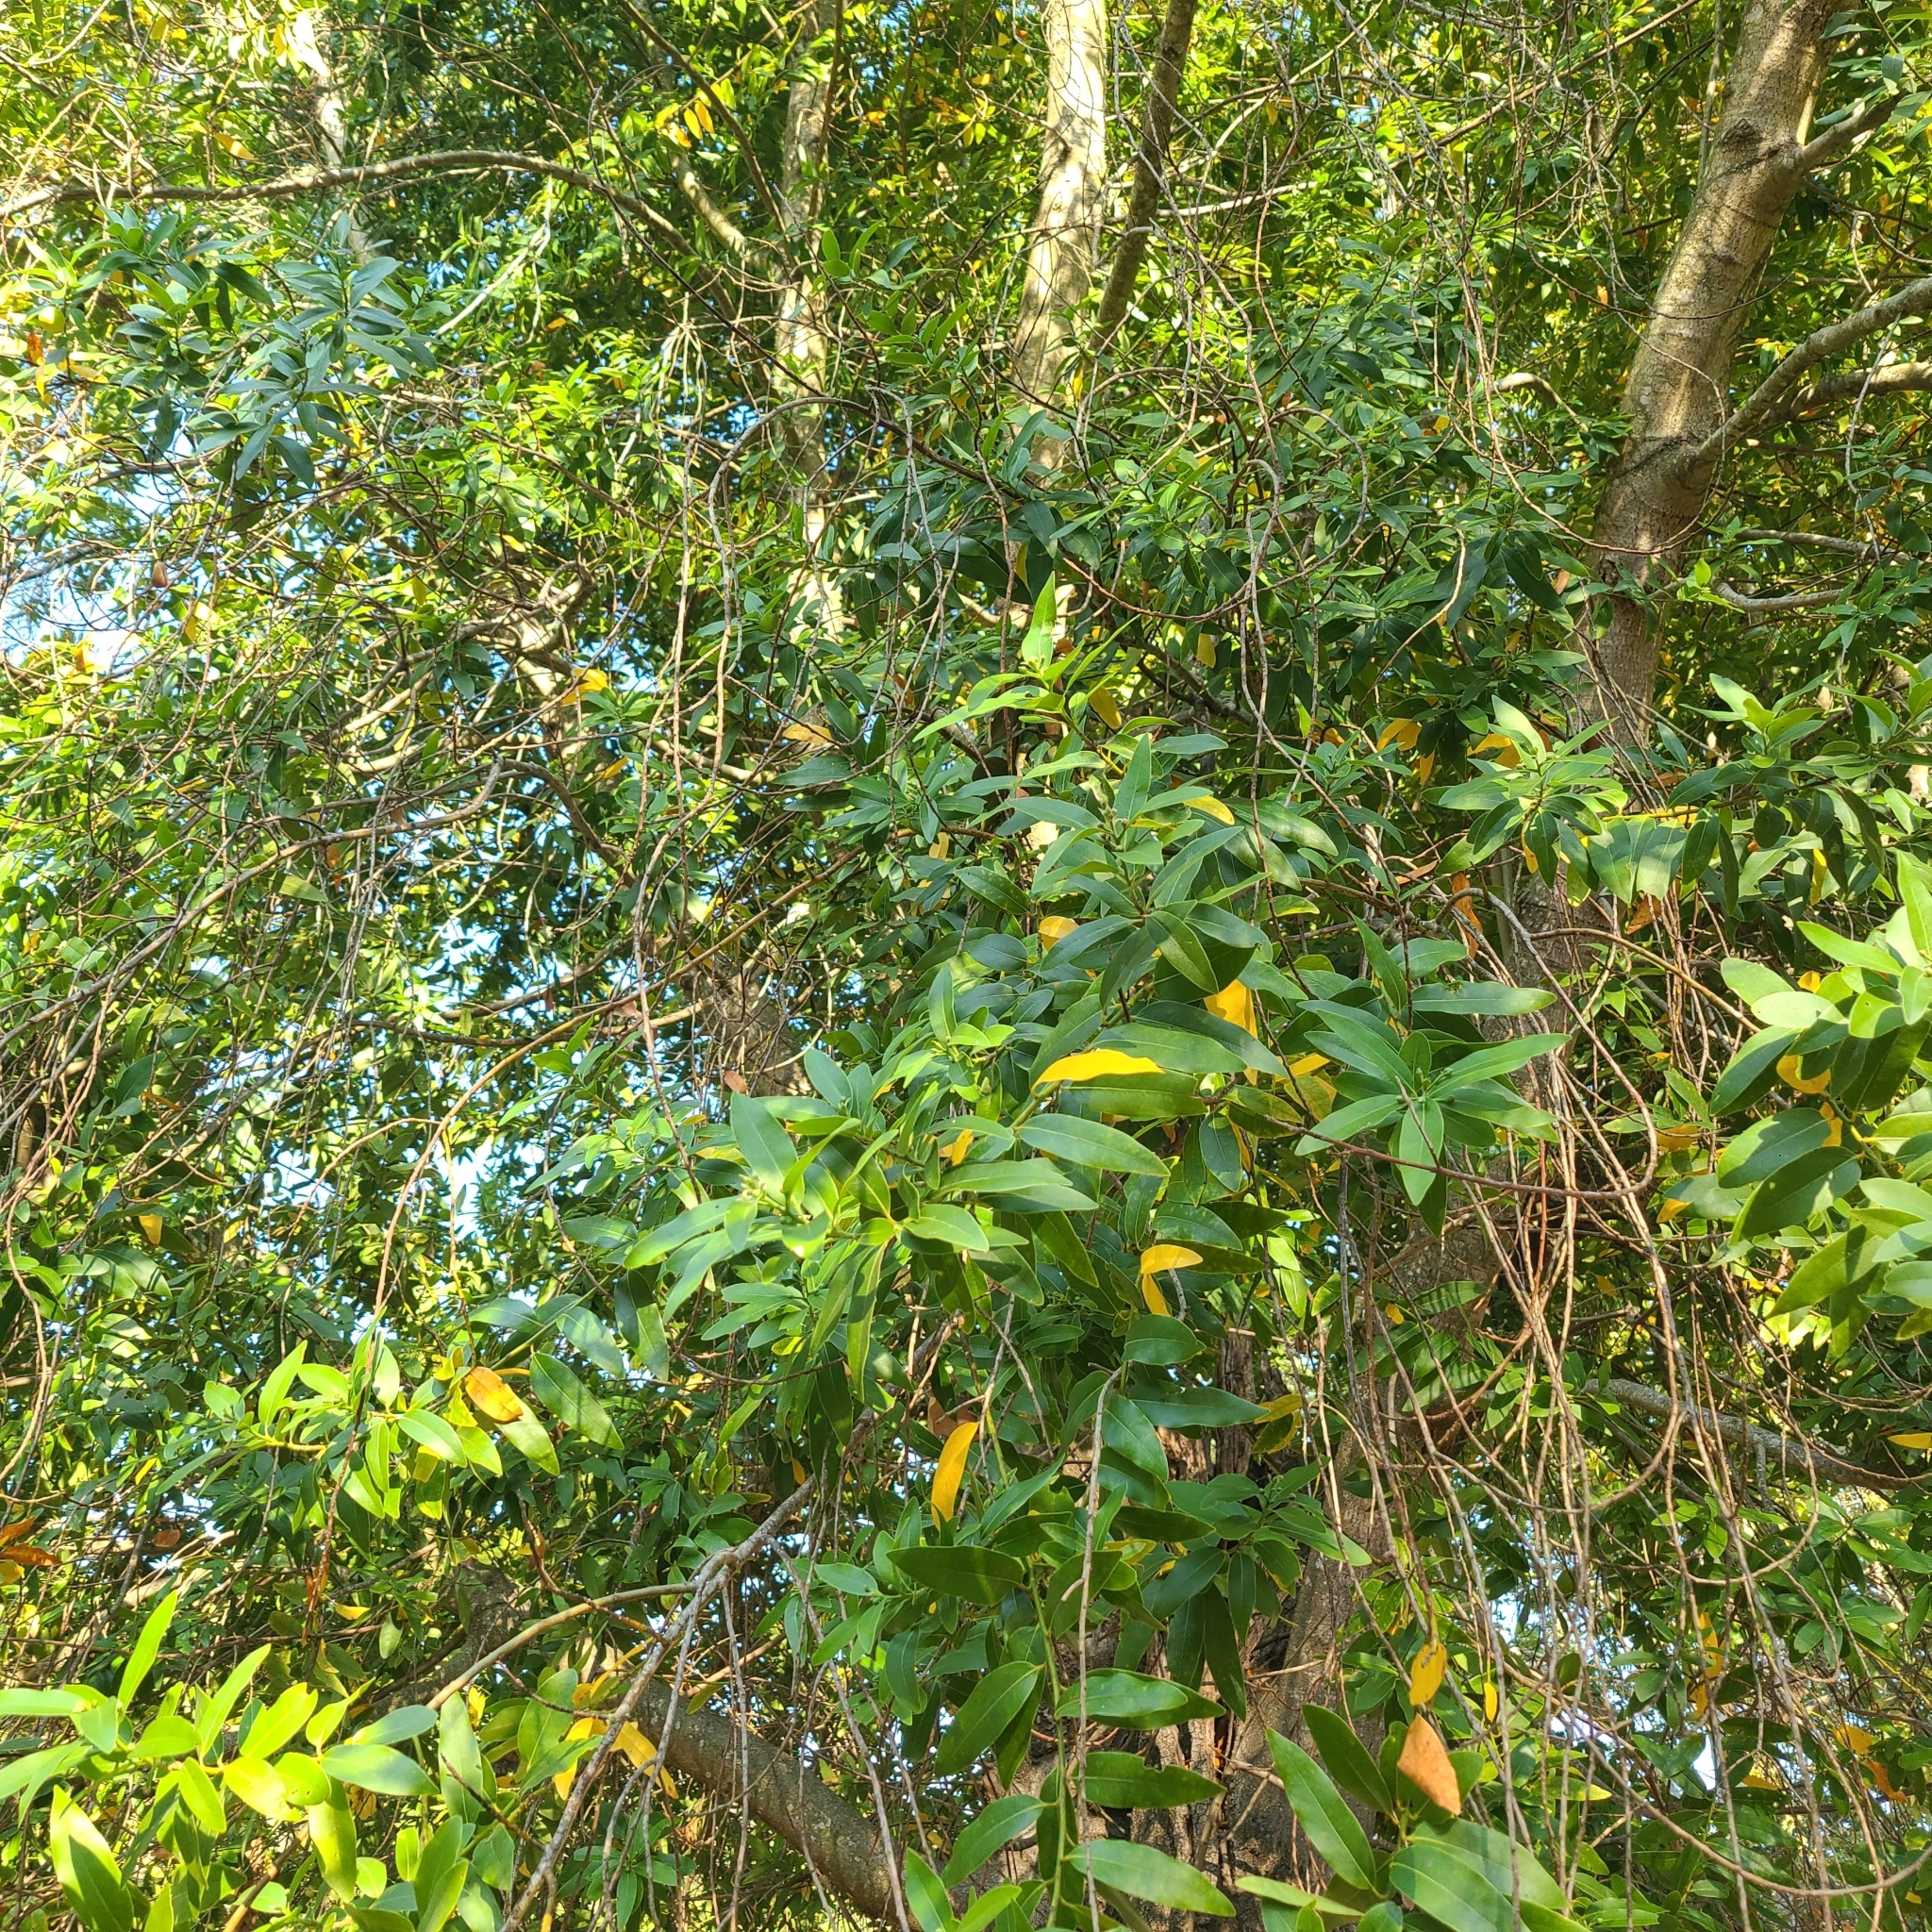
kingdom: Plantae
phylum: Tracheophyta
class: Magnoliopsida
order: Laurales
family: Lauraceae
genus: Umbellularia
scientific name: Umbellularia californica
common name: California bay
